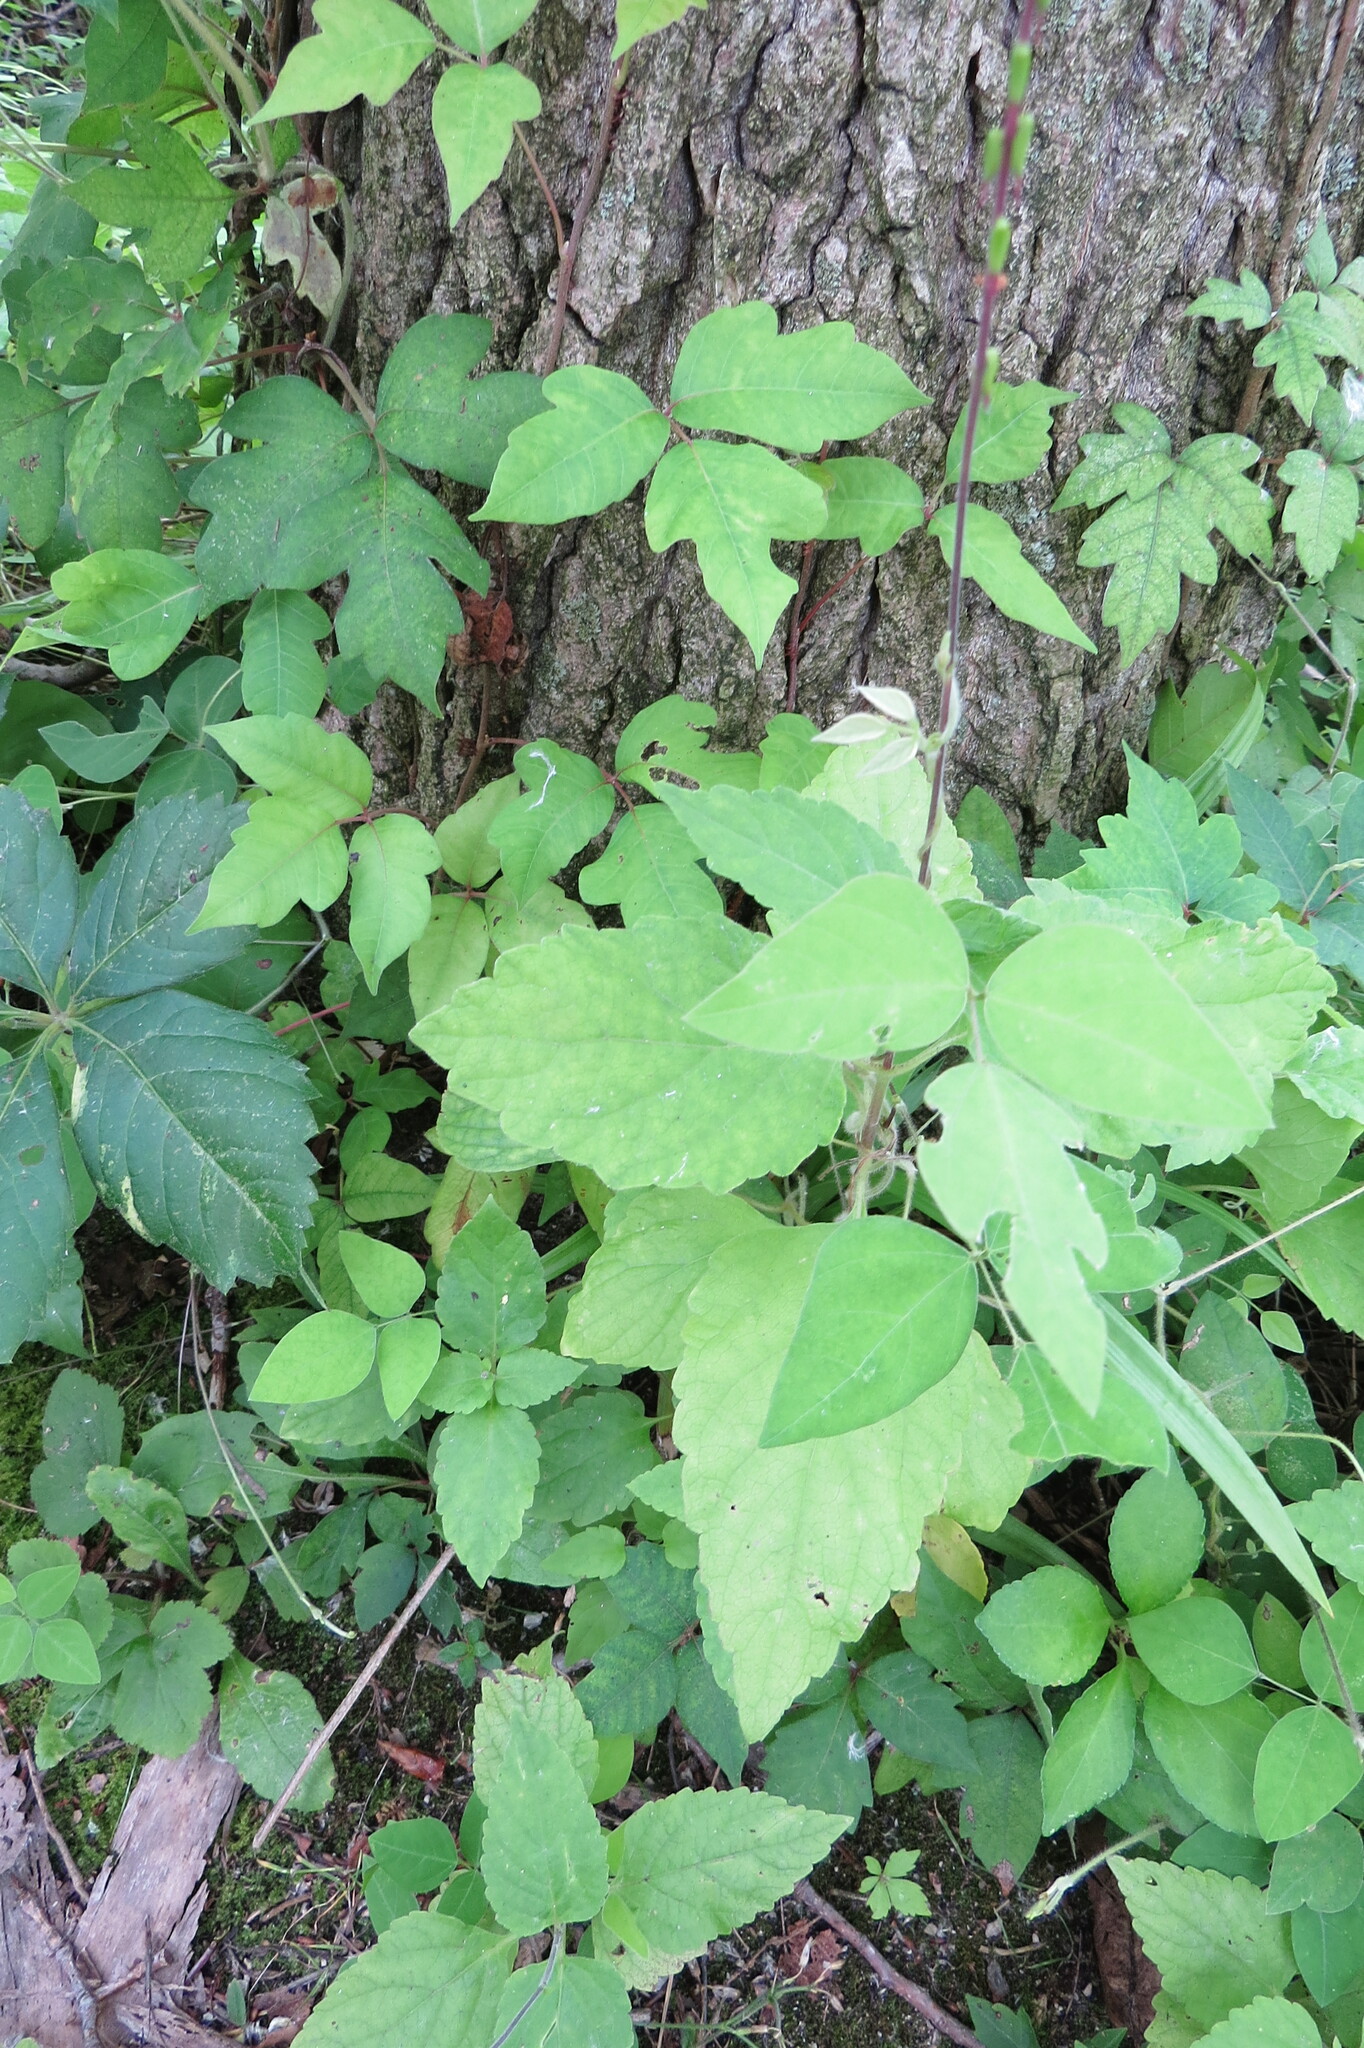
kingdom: Plantae
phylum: Tracheophyta
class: Magnoliopsida
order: Lamiales
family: Phrymaceae
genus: Phryma
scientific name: Phryma leptostachya
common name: American lopseed
